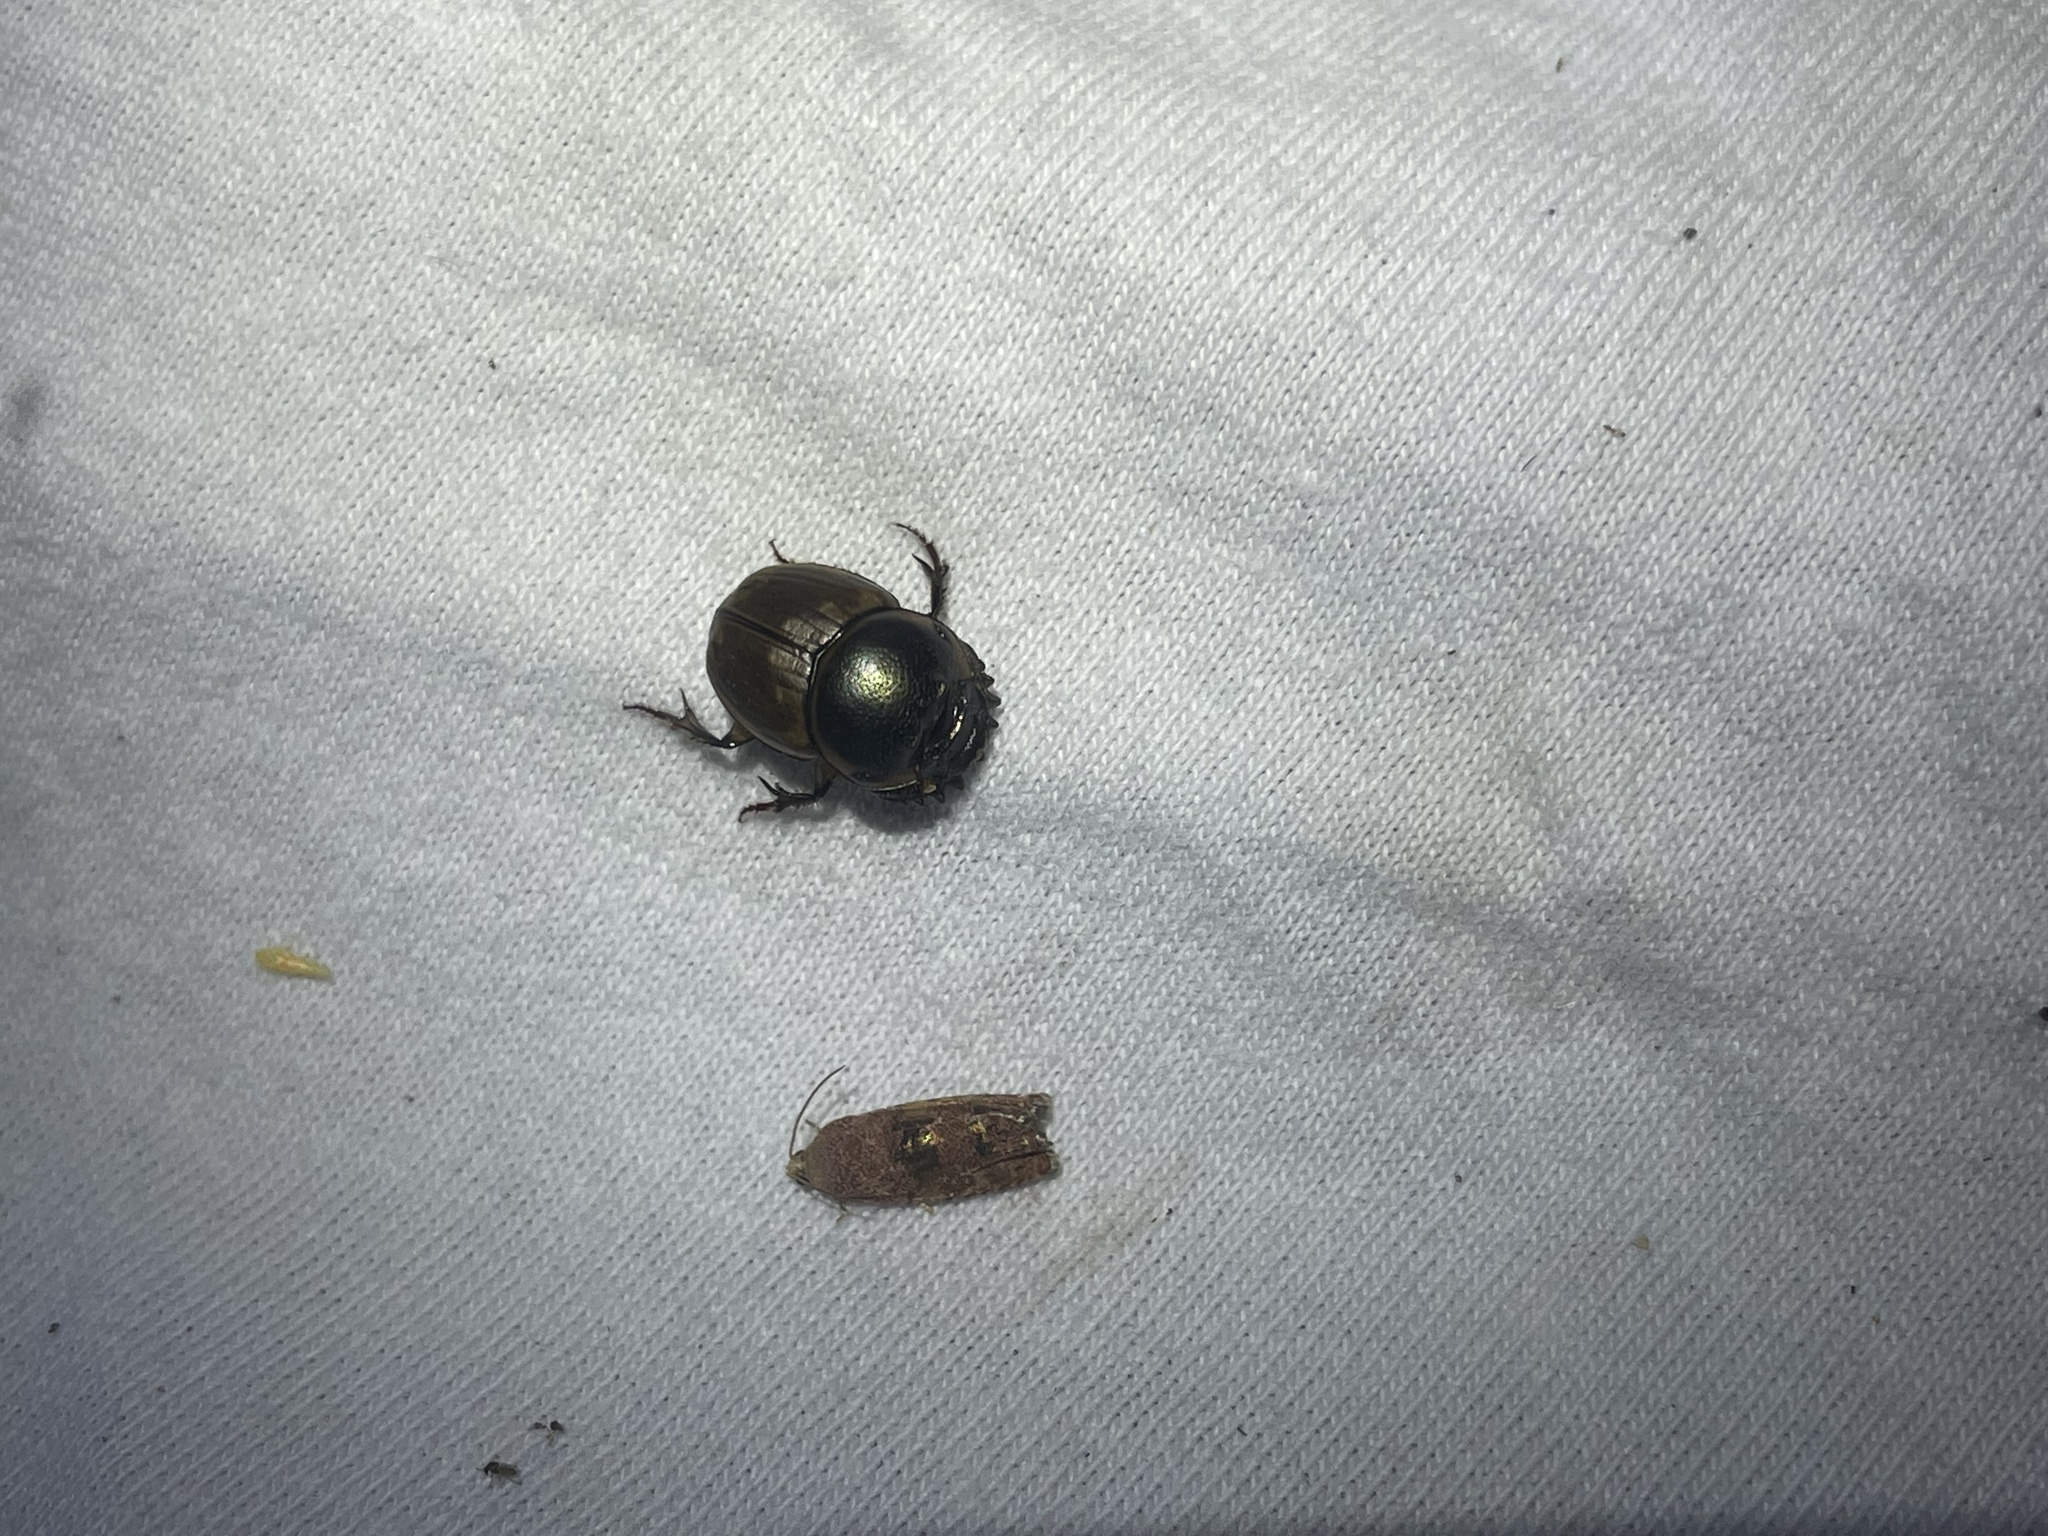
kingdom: Animalia
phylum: Arthropoda
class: Insecta
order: Coleoptera
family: Scarabaeidae
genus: Digitonthophagus
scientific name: Digitonthophagus gazella
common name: Brown dung beetle
